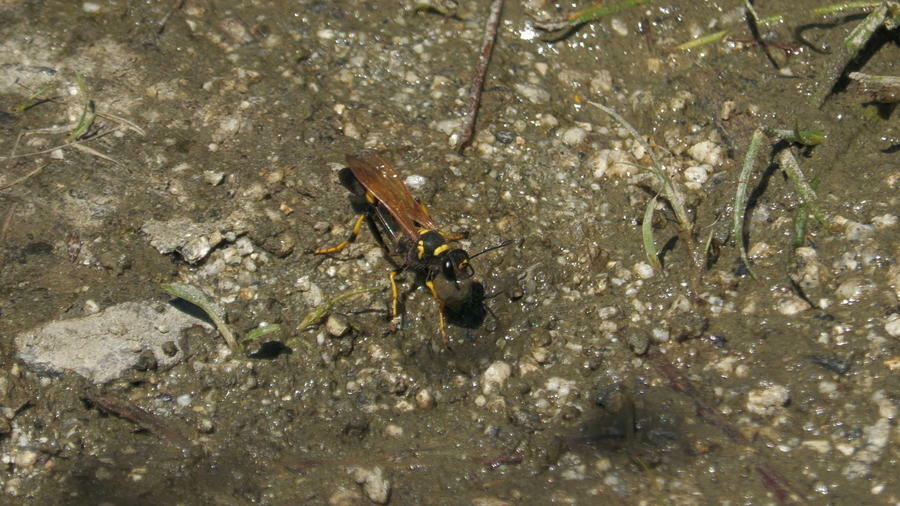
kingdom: Animalia
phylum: Arthropoda
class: Insecta
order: Hymenoptera
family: Sphecidae
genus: Sceliphron
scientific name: Sceliphron caementarium
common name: Mud dauber
